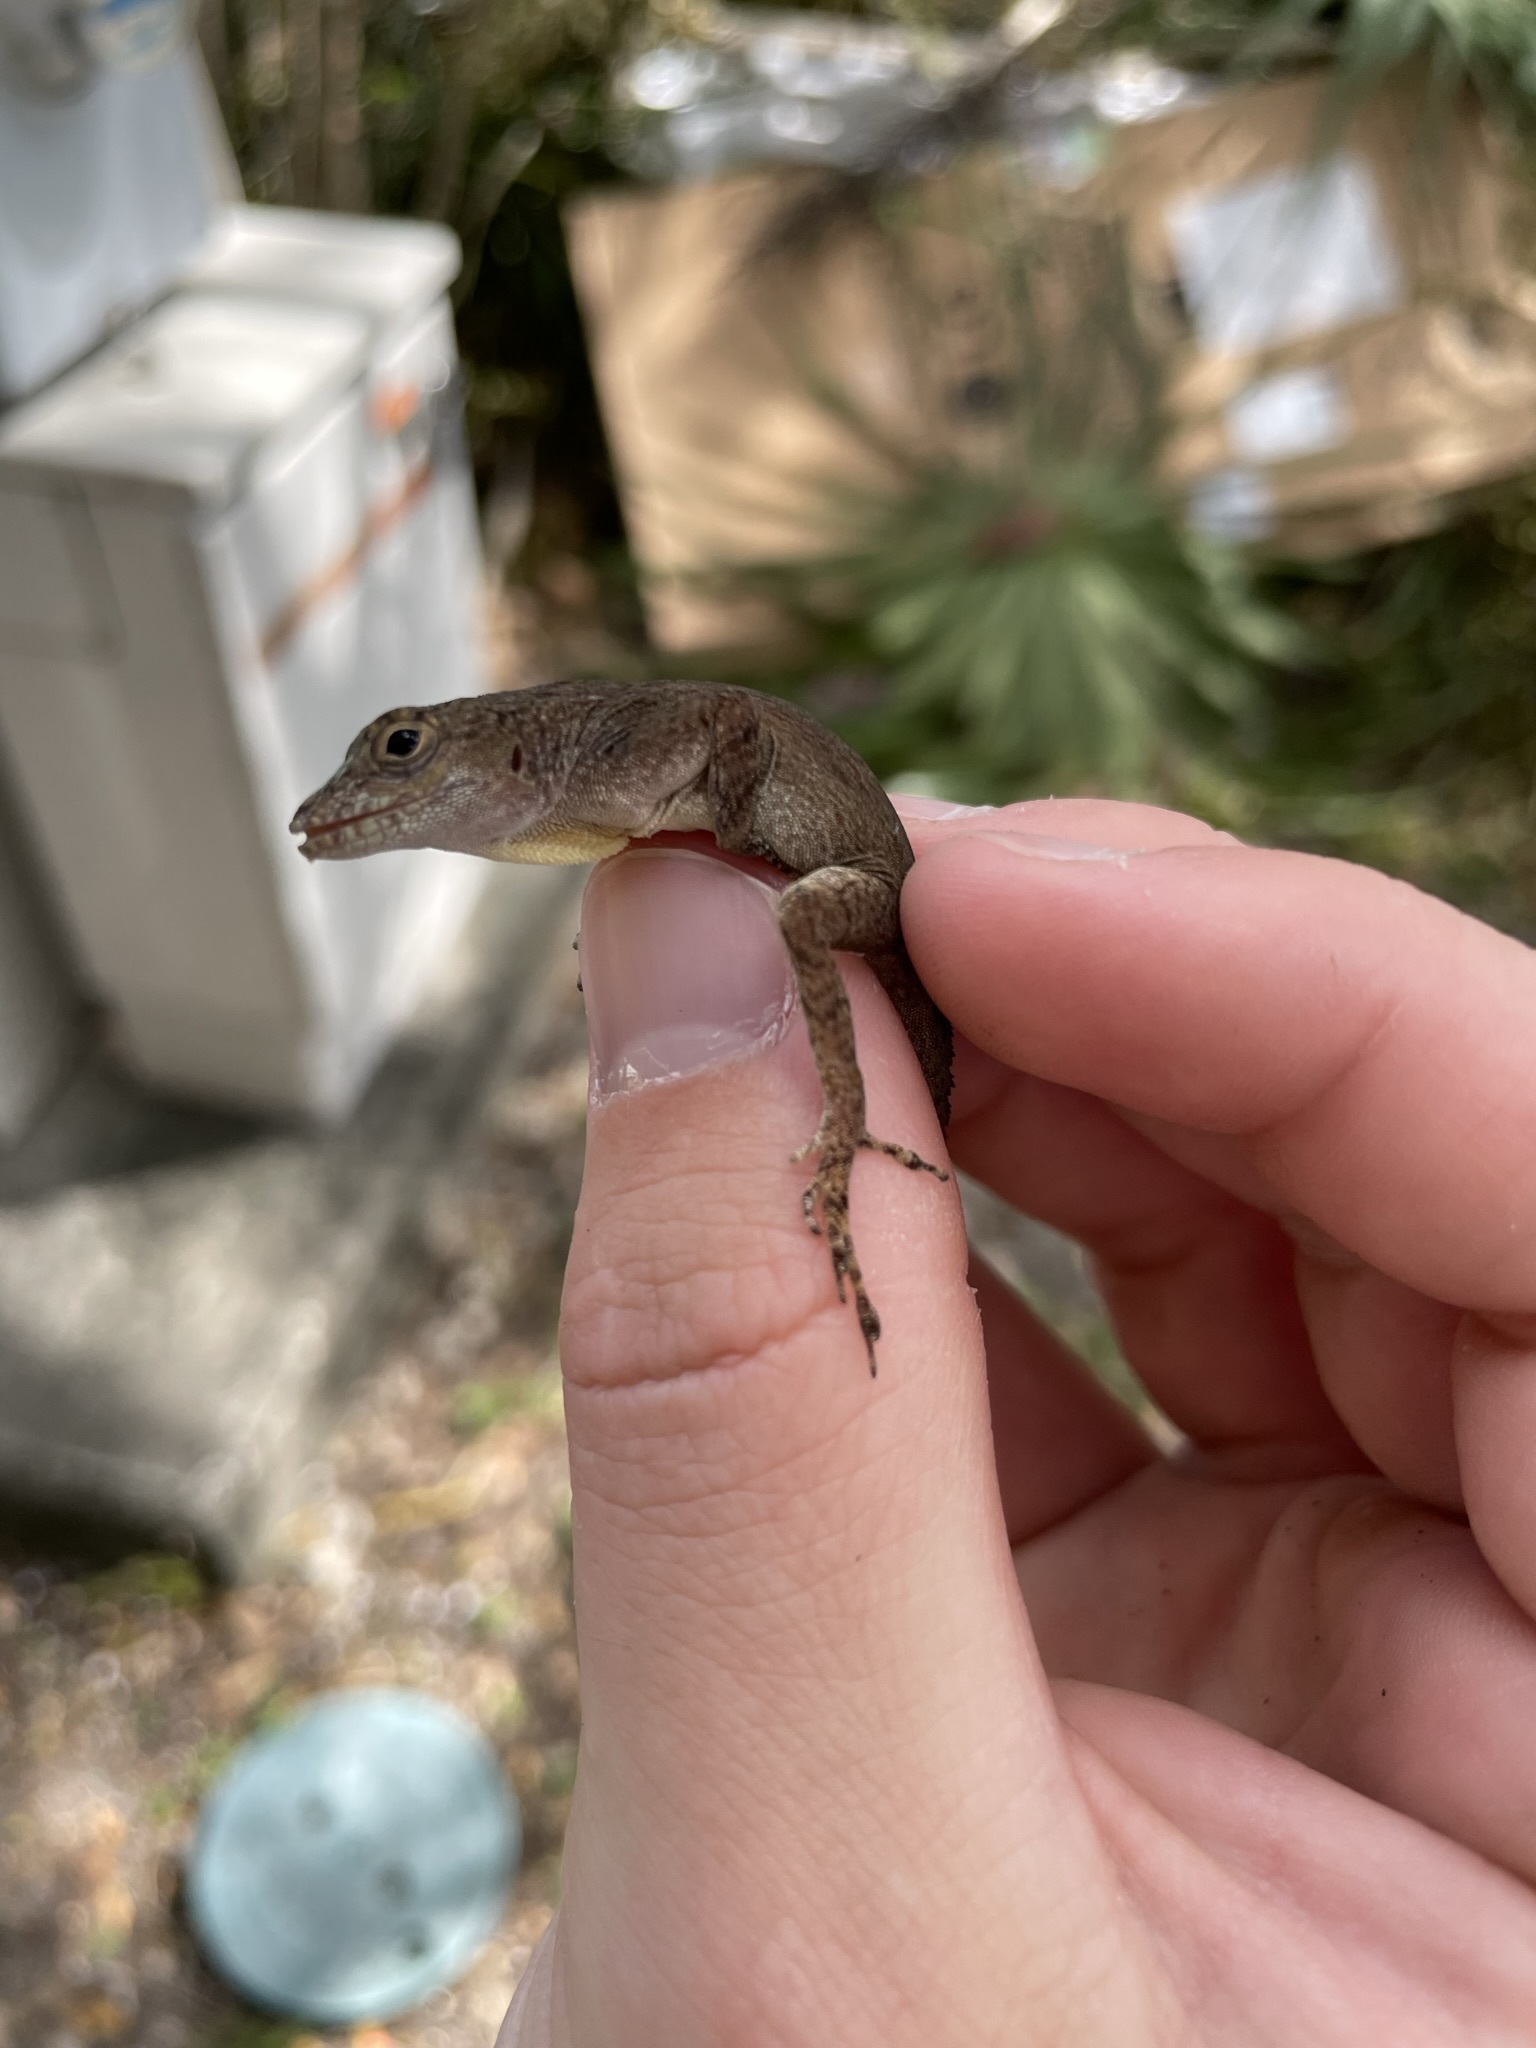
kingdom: Animalia
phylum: Chordata
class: Squamata
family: Dactyloidae
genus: Anolis
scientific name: Anolis distichus
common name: Bark anole
